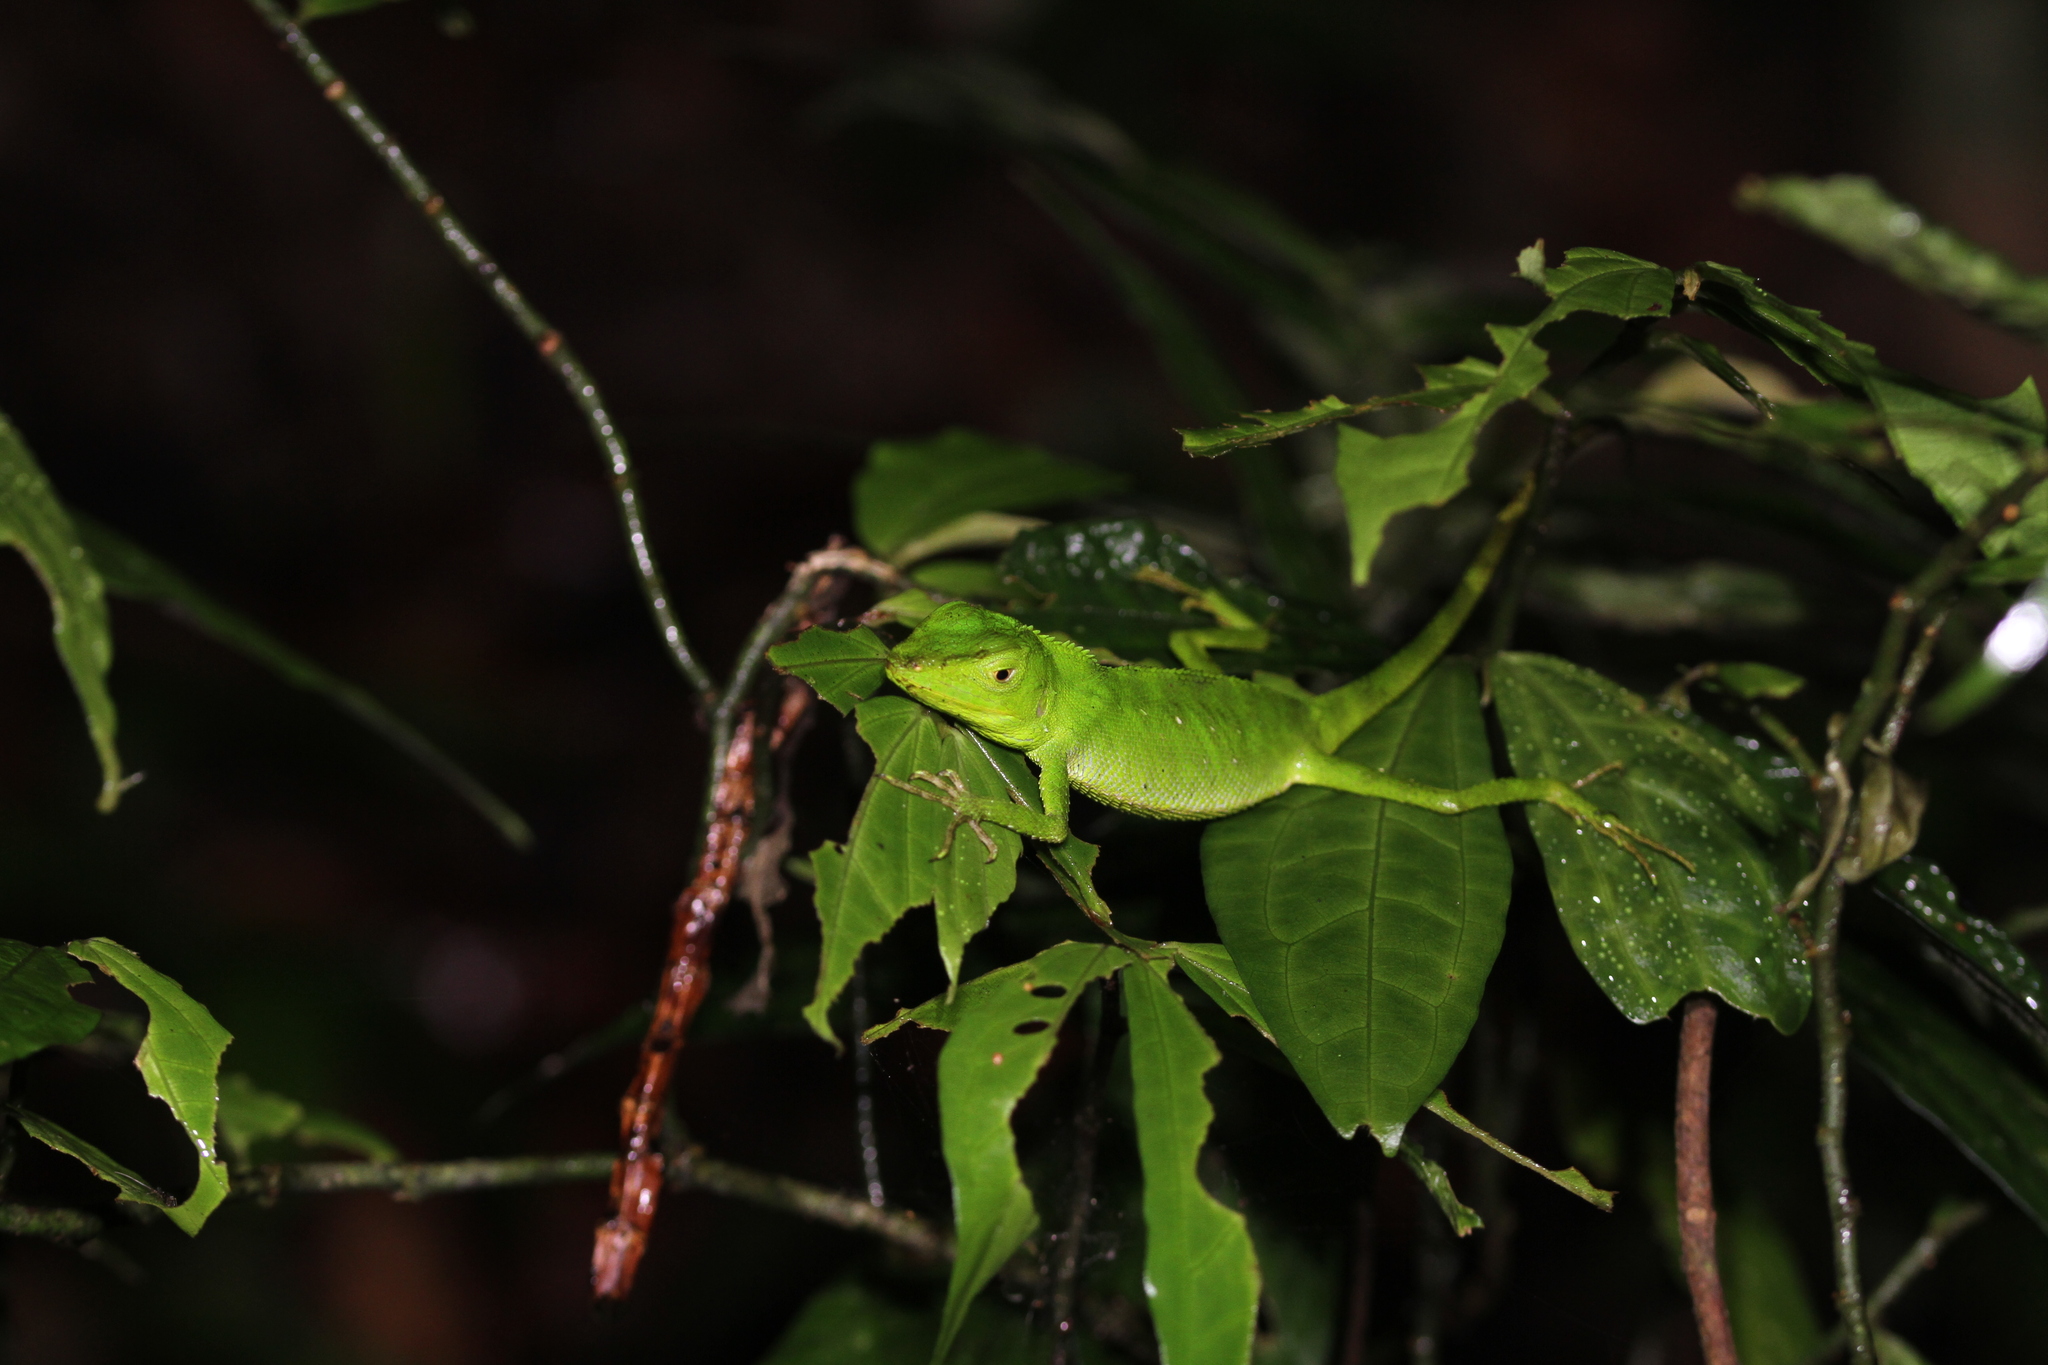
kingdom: Animalia
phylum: Chordata
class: Squamata
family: Agamidae
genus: Pseudocalotes
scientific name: Pseudocalotes tympanistriga
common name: Indonesian false bloodsucker
